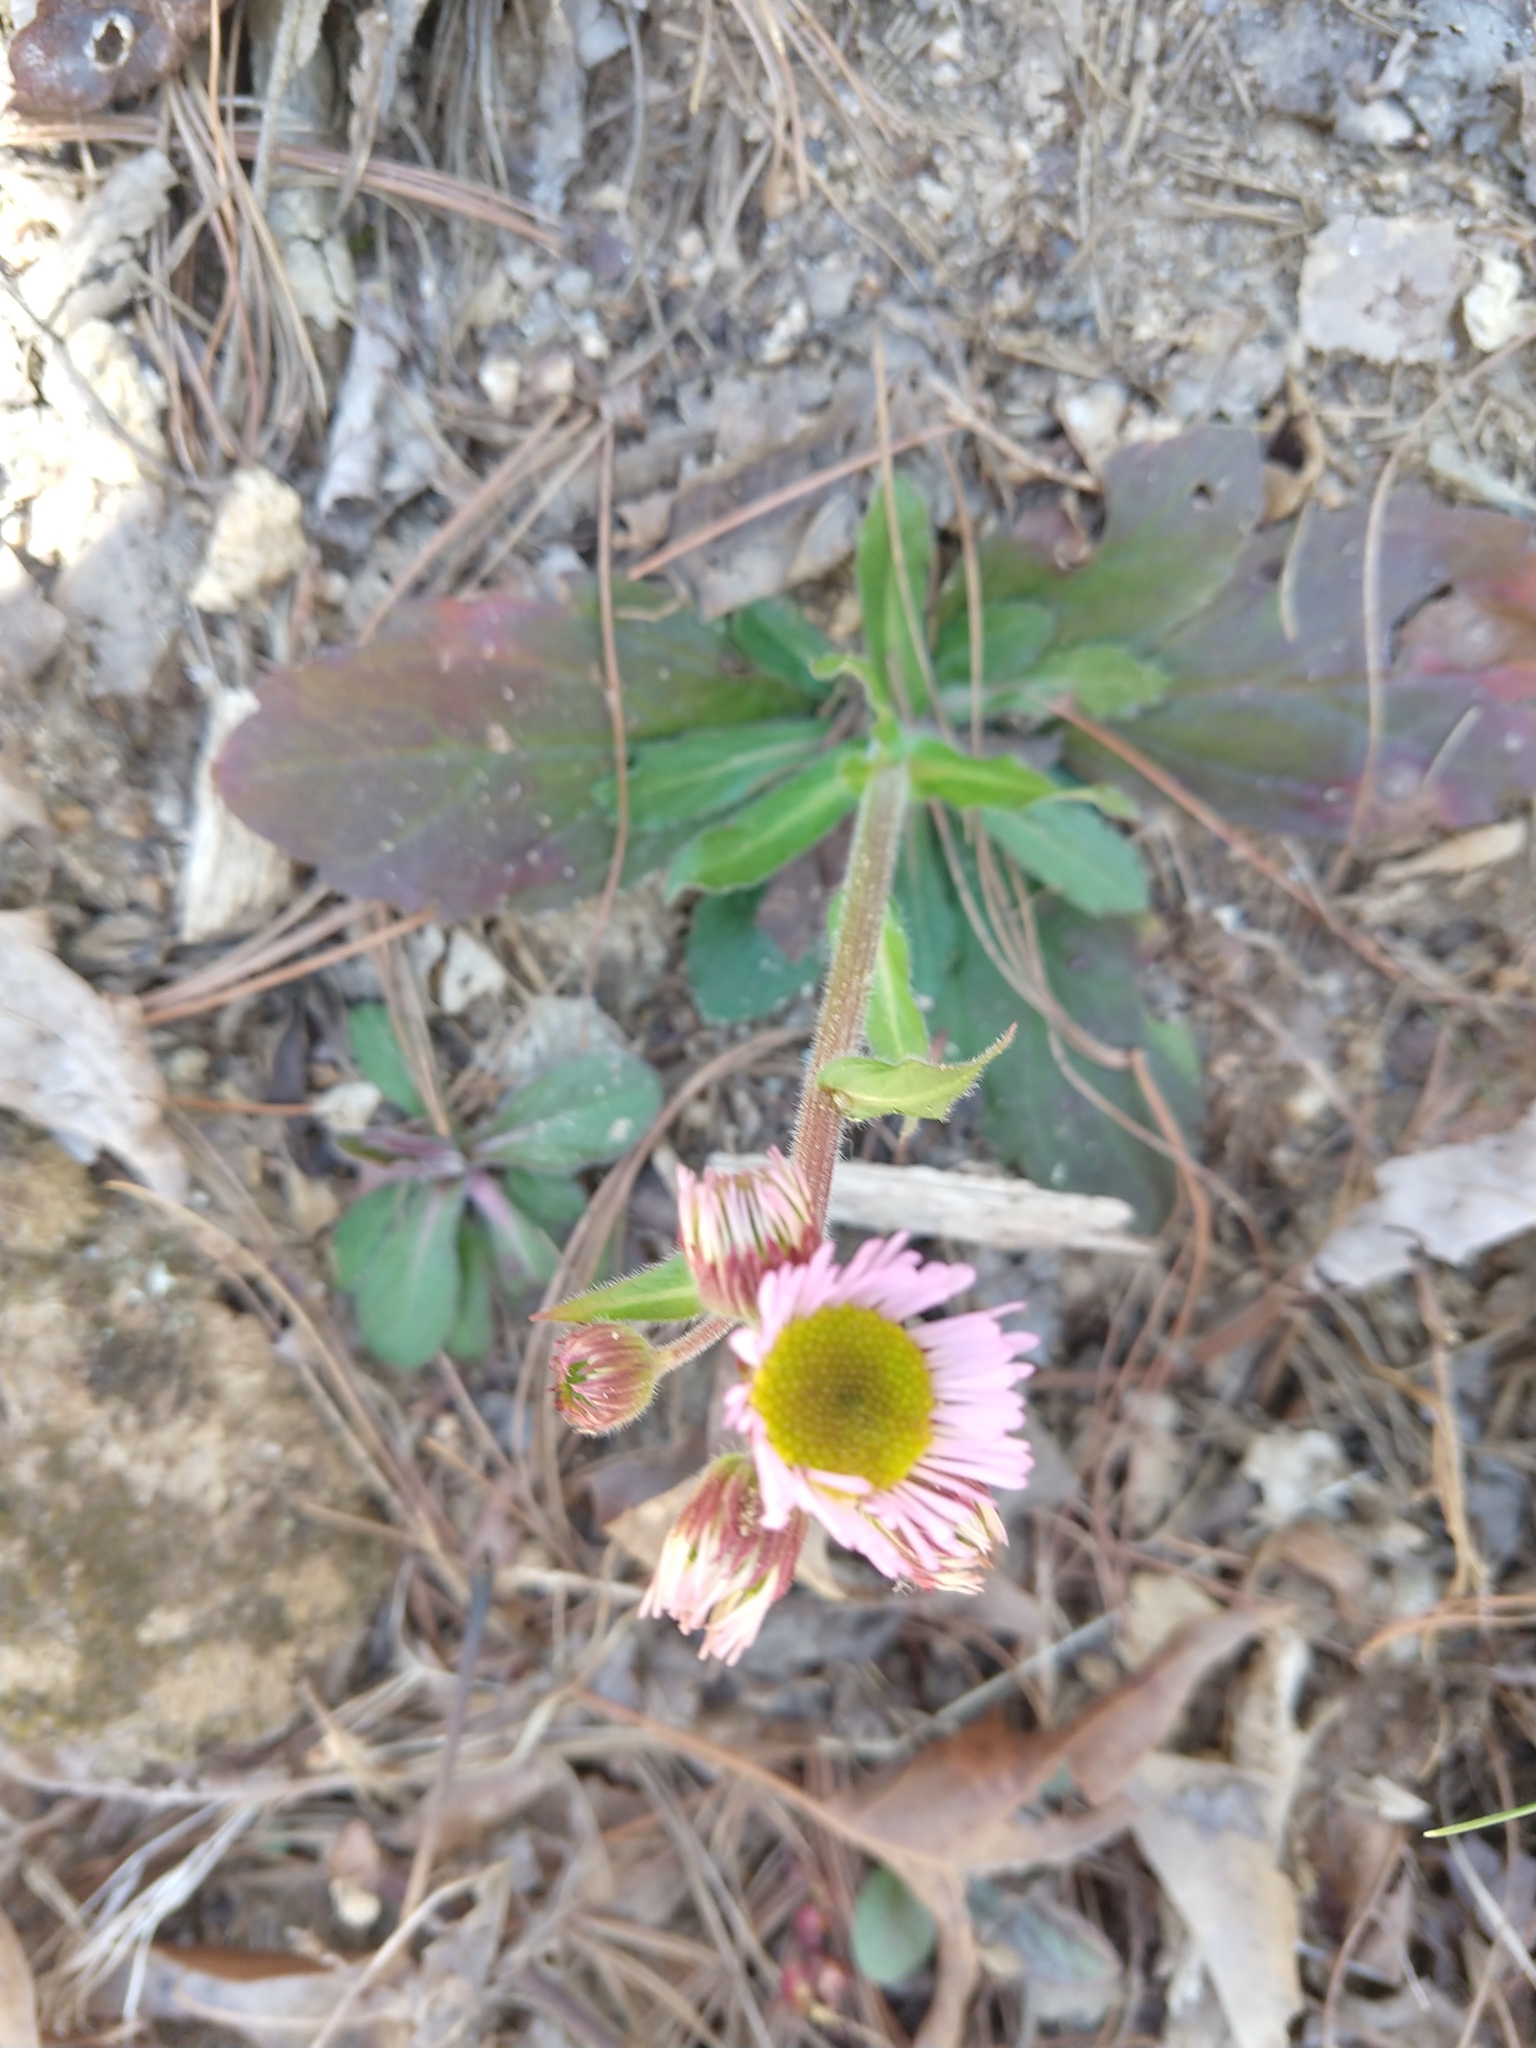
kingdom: Plantae
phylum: Tracheophyta
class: Magnoliopsida
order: Asterales
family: Asteraceae
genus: Erigeron
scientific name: Erigeron pulchellus
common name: Hairy fleabane
